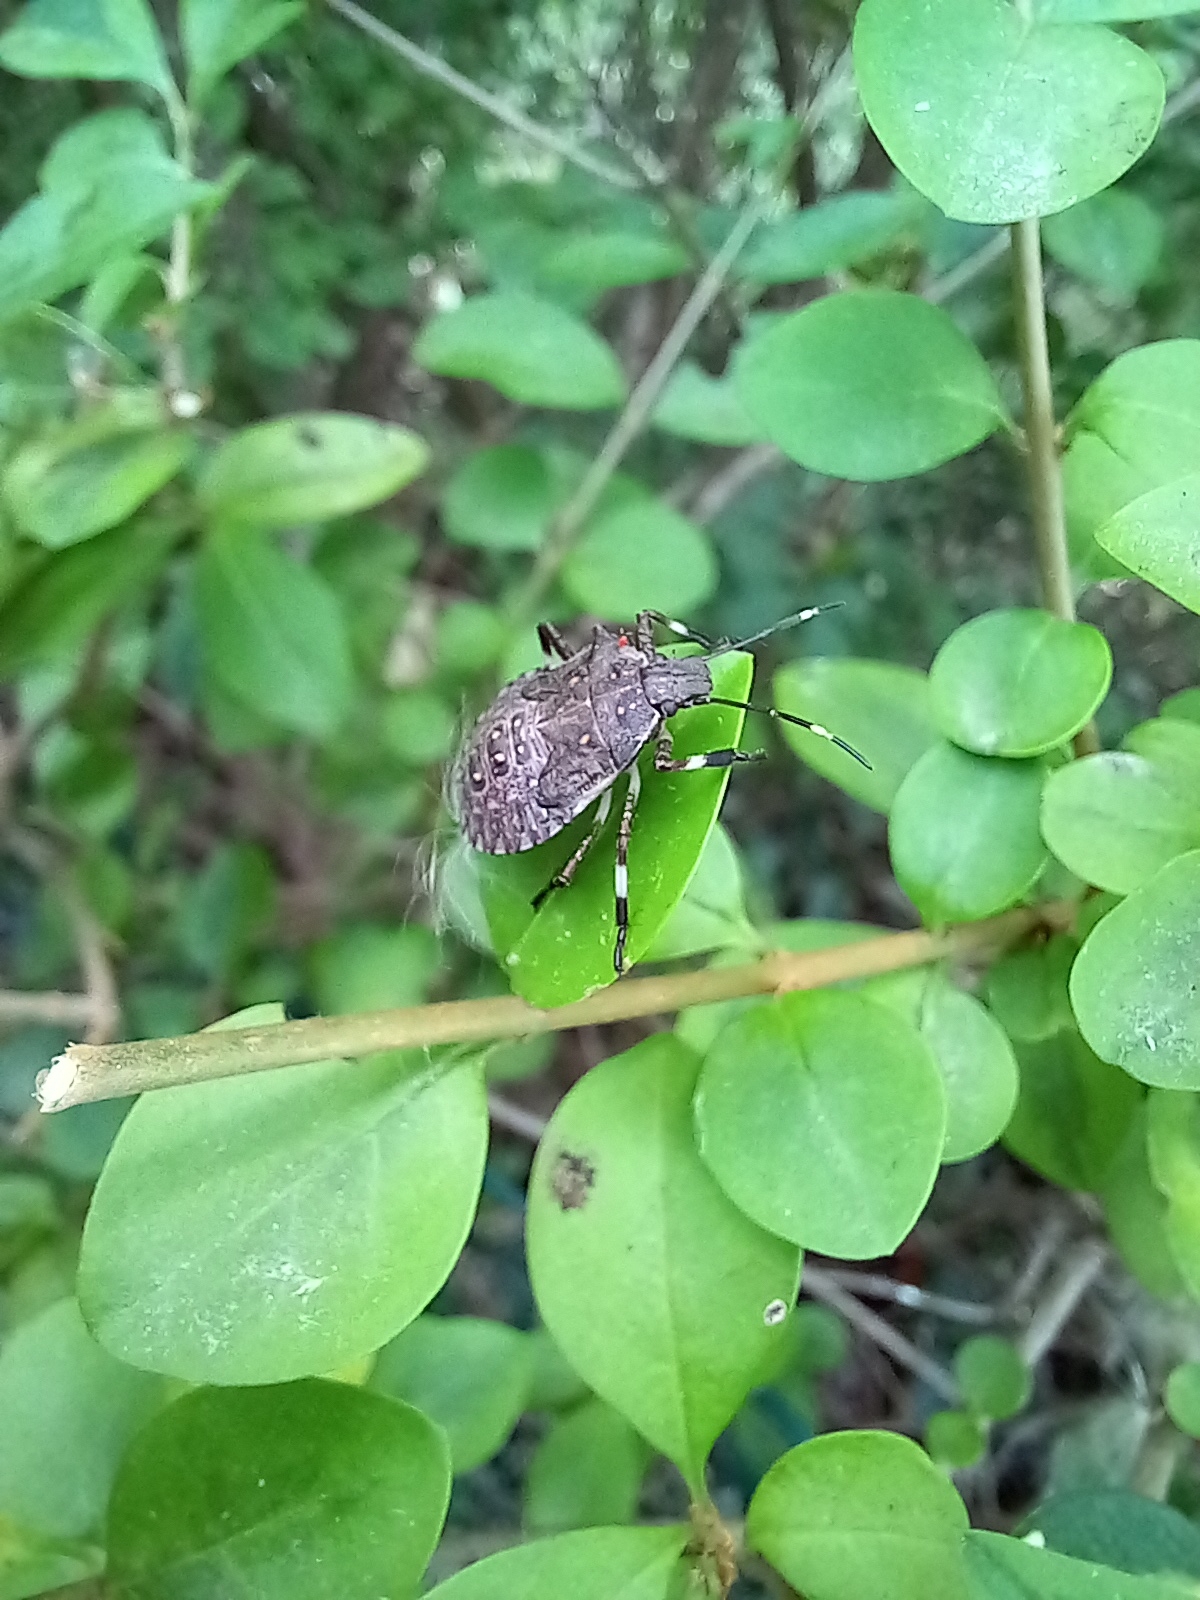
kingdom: Animalia
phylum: Arthropoda
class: Insecta
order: Hemiptera
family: Pentatomidae
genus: Halyomorpha
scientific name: Halyomorpha halys
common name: Brown marmorated stink bug
